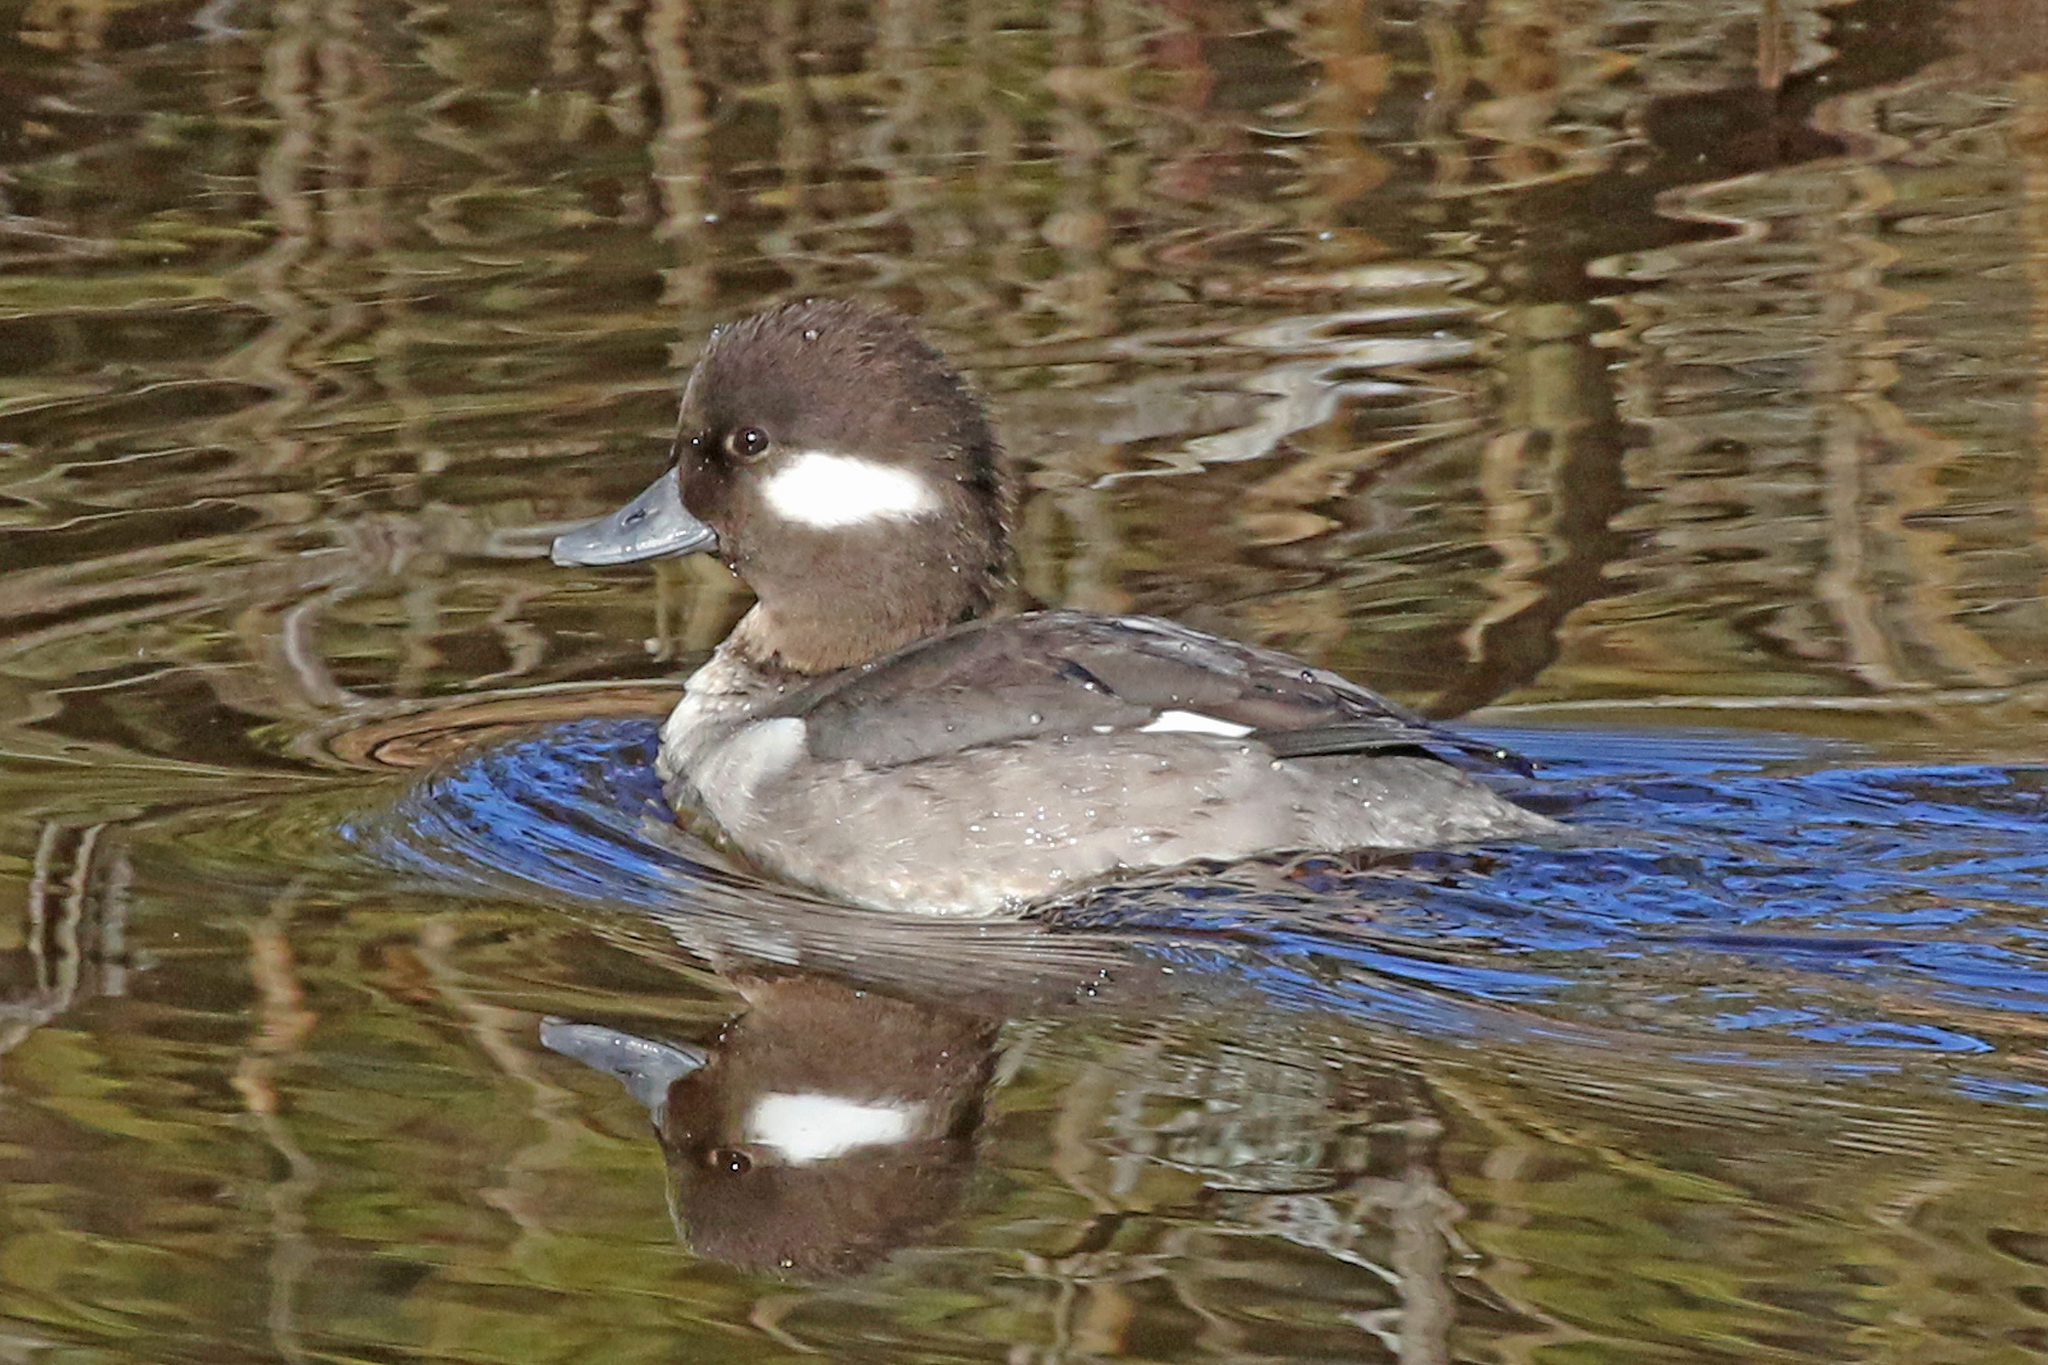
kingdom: Animalia
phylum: Chordata
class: Aves
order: Anseriformes
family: Anatidae
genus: Bucephala
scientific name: Bucephala albeola
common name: Bufflehead
